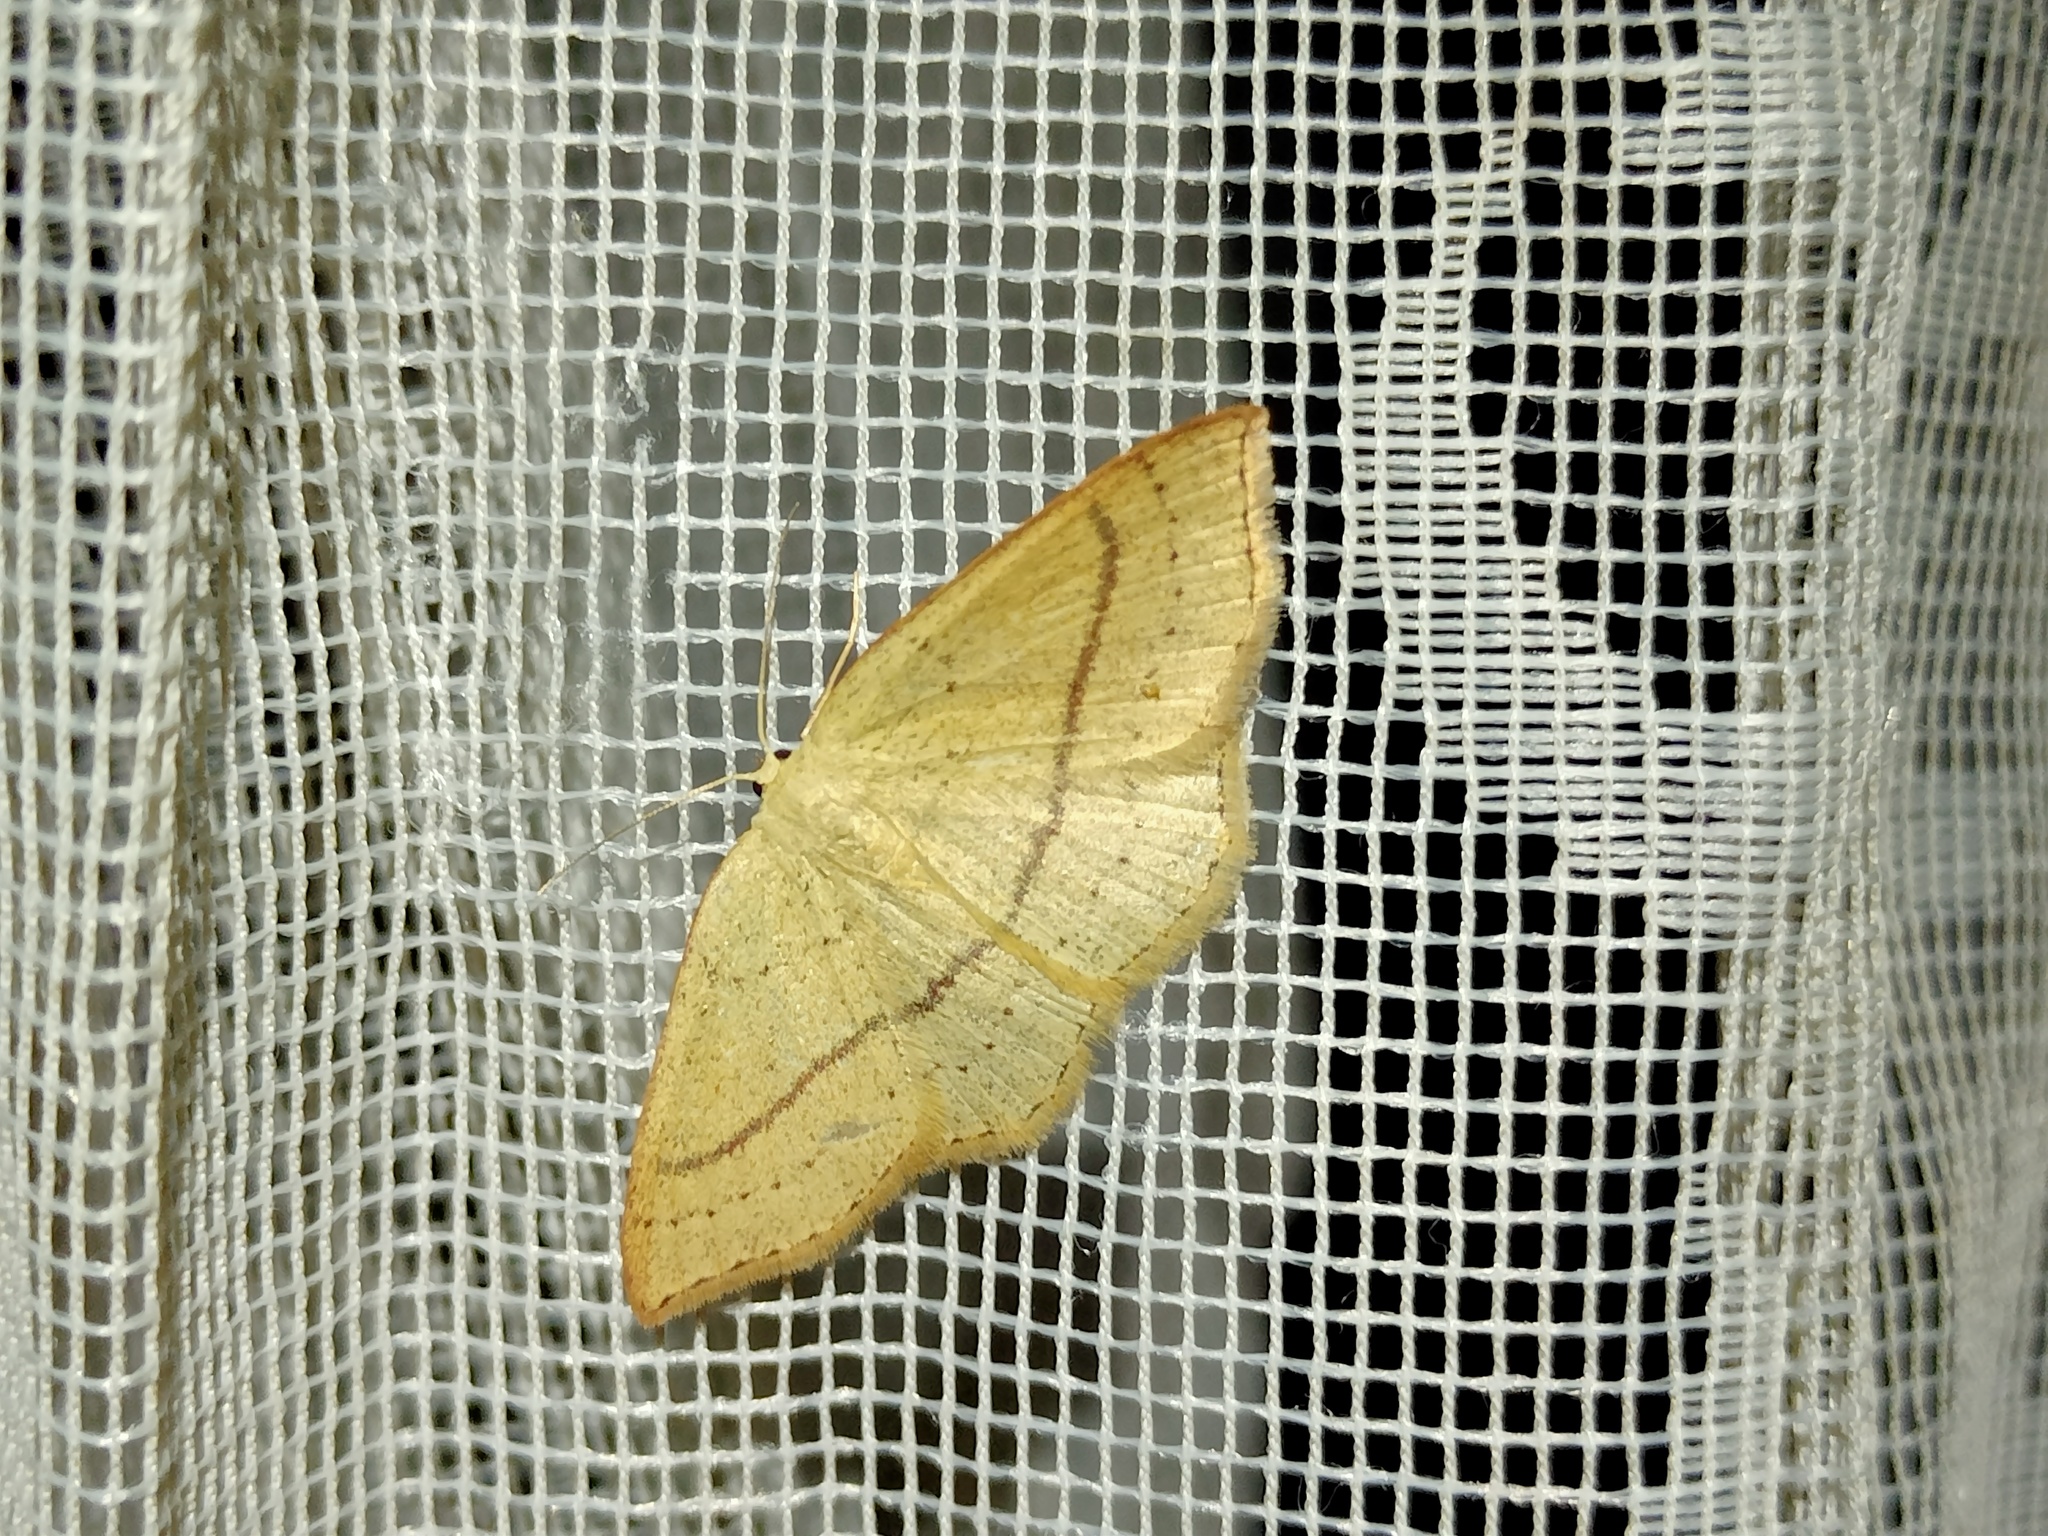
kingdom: Animalia
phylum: Arthropoda
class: Insecta
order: Lepidoptera
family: Geometridae
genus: Cyclophora
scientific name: Cyclophora linearia
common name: Clay triple-lines
